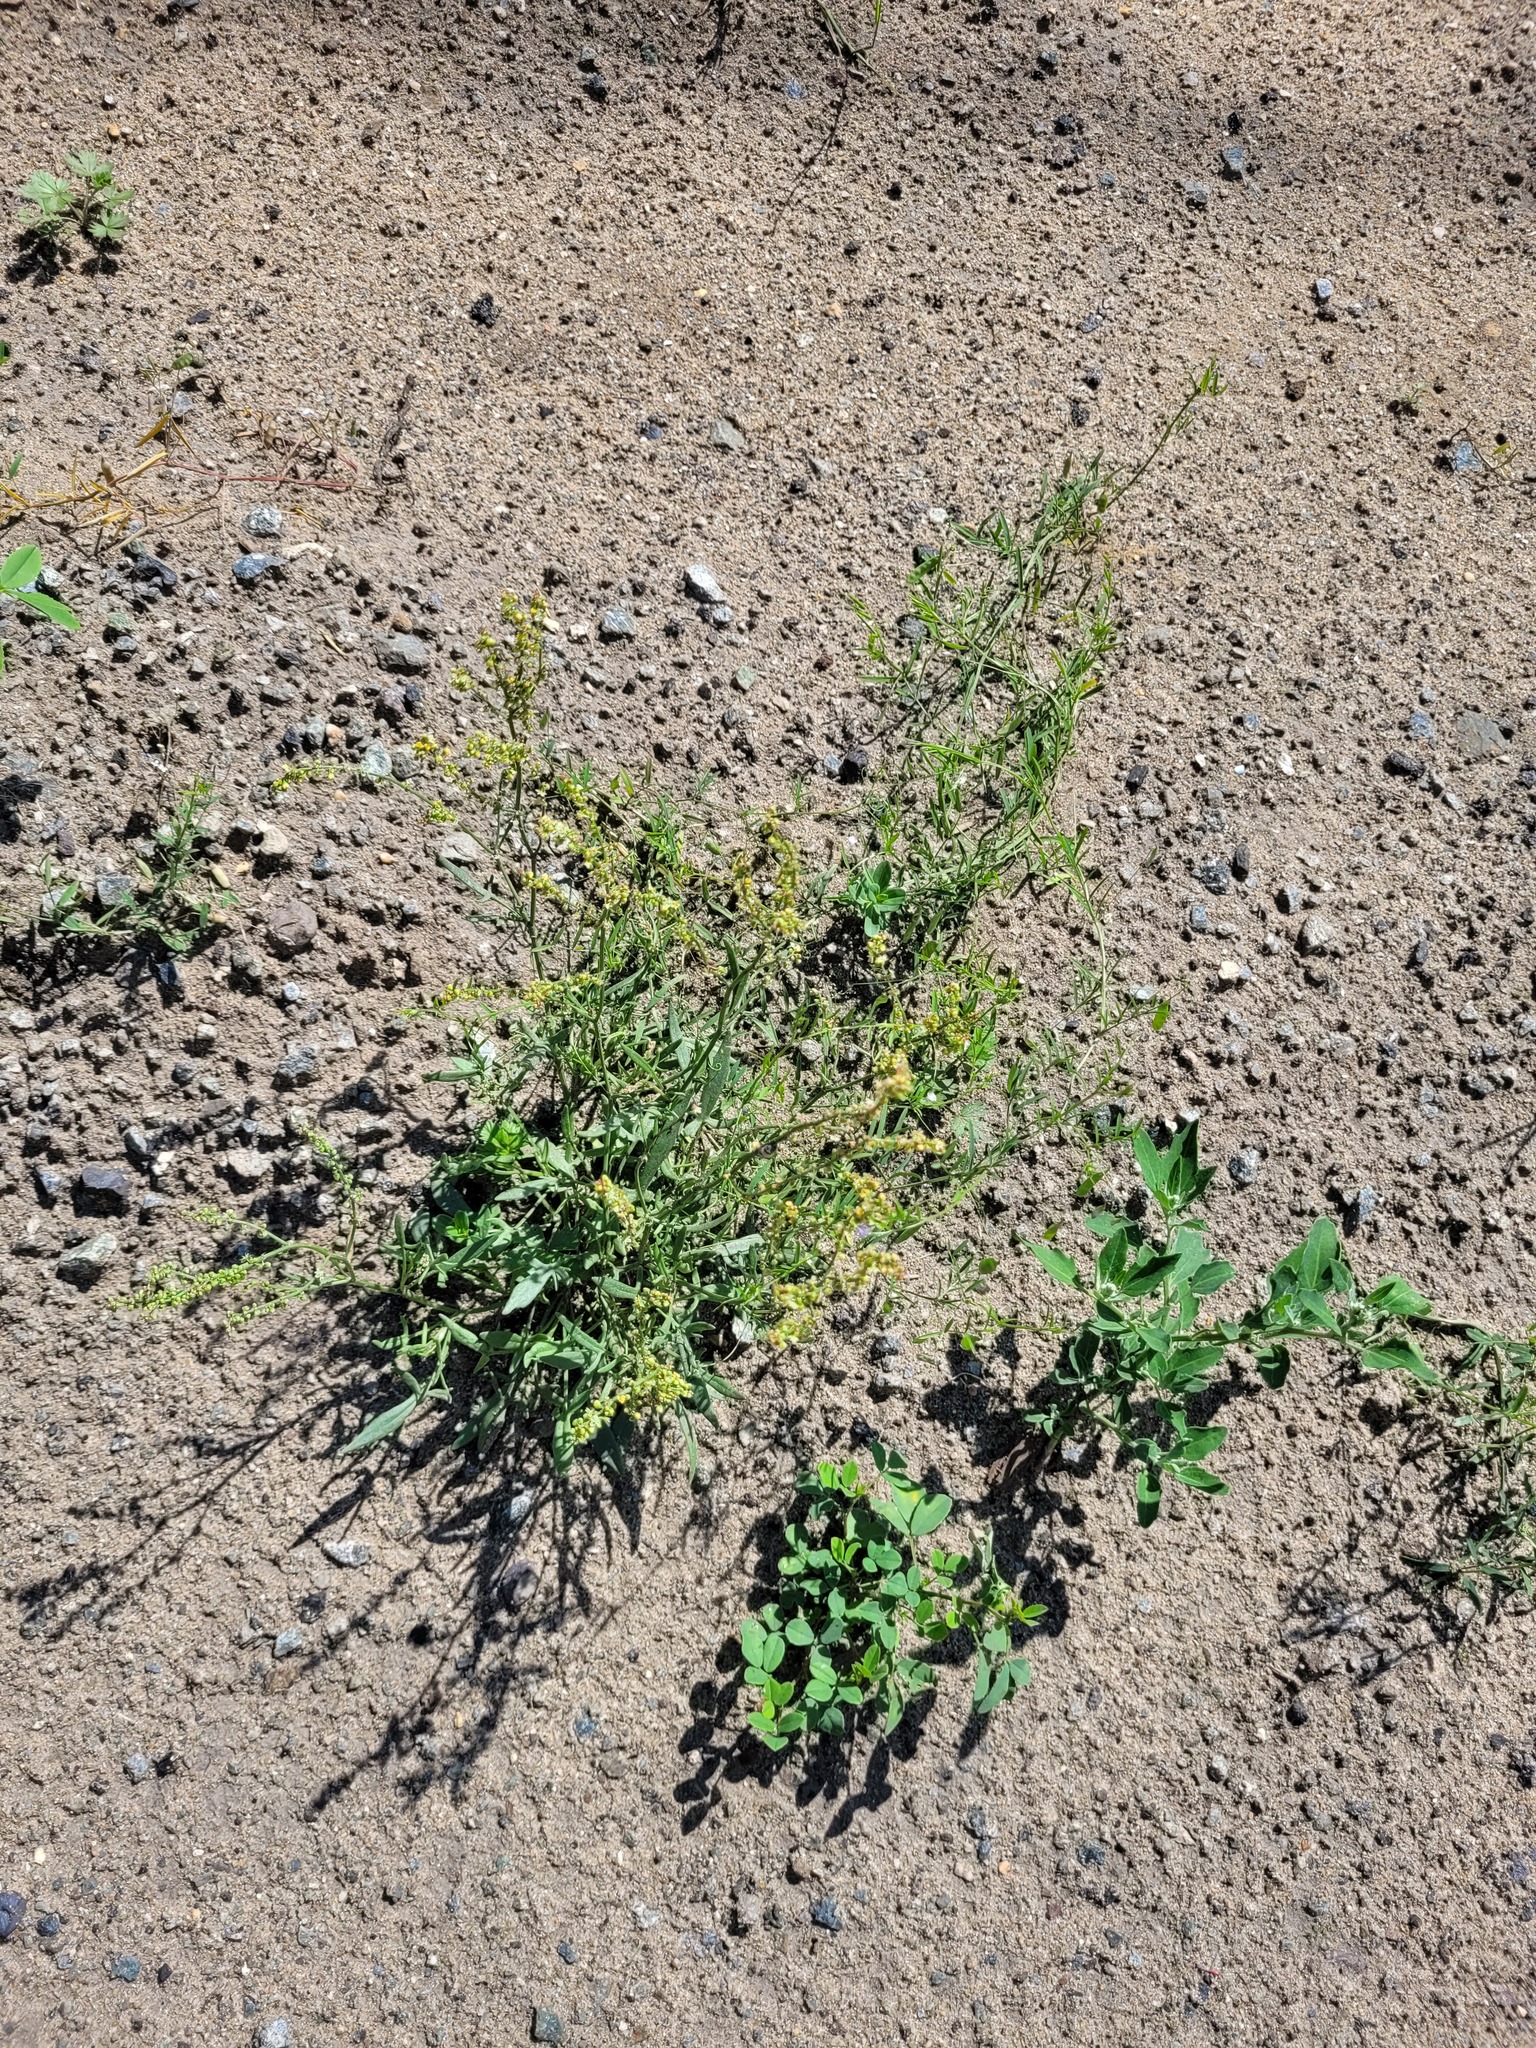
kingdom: Plantae
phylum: Tracheophyta
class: Magnoliopsida
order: Caryophyllales
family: Polygonaceae
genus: Rumex
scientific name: Rumex acetosella
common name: Common sheep sorrel
